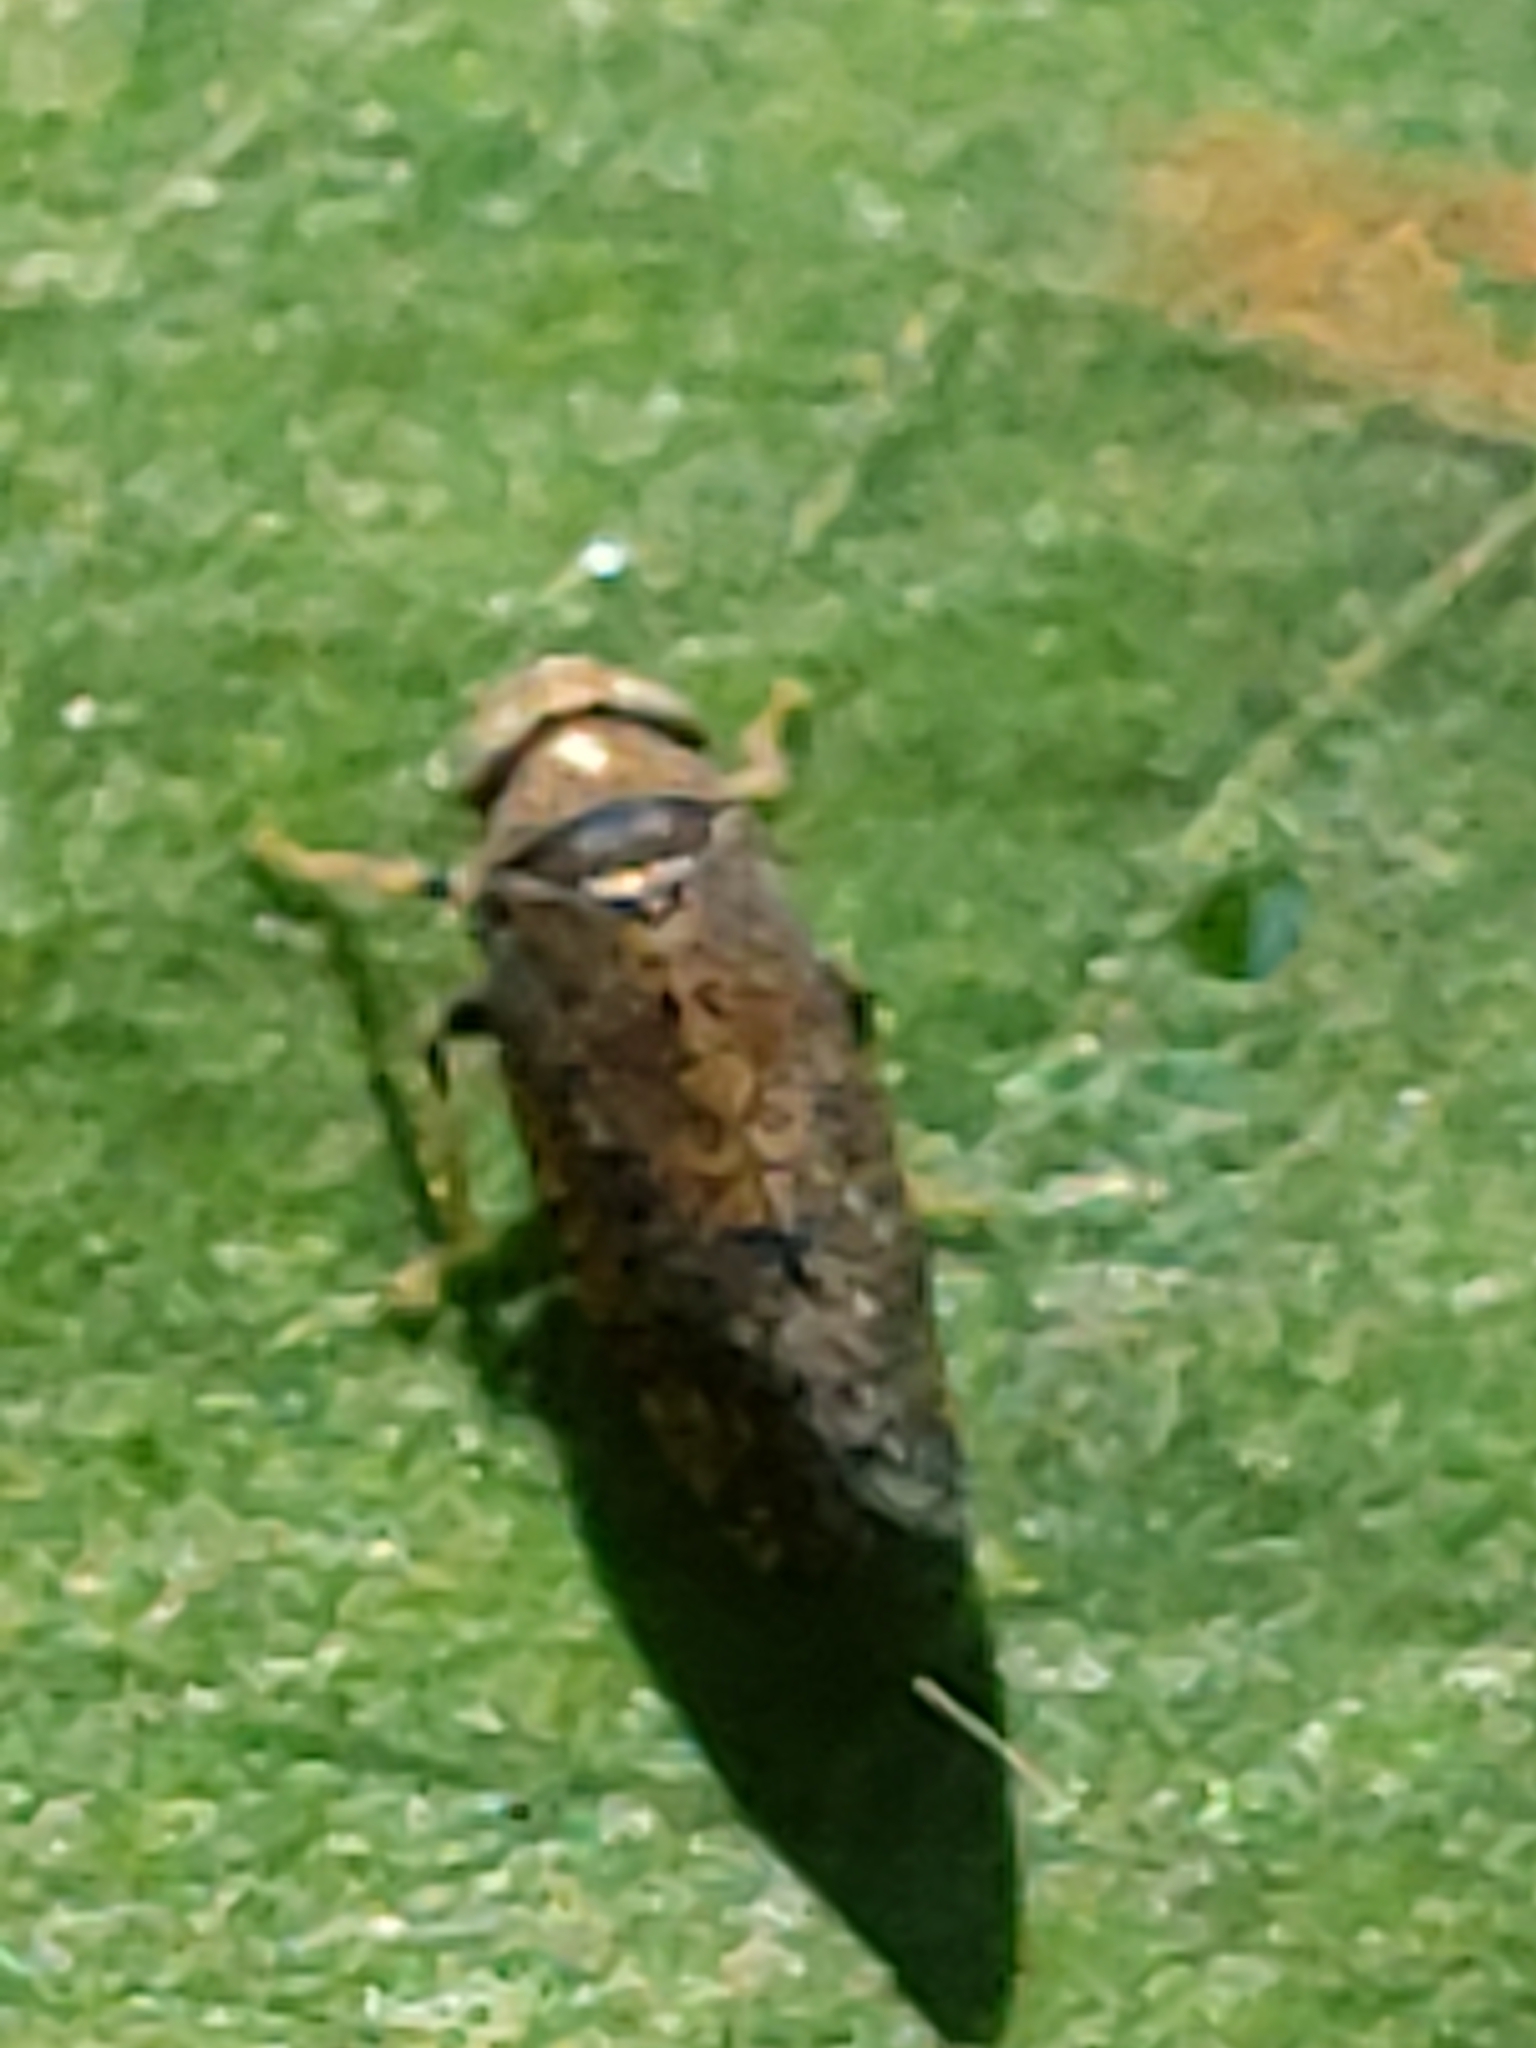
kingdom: Animalia
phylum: Arthropoda
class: Insecta
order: Hemiptera
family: Cicadellidae
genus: Orientus
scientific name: Orientus ishidae
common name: Japanese leafhopper
